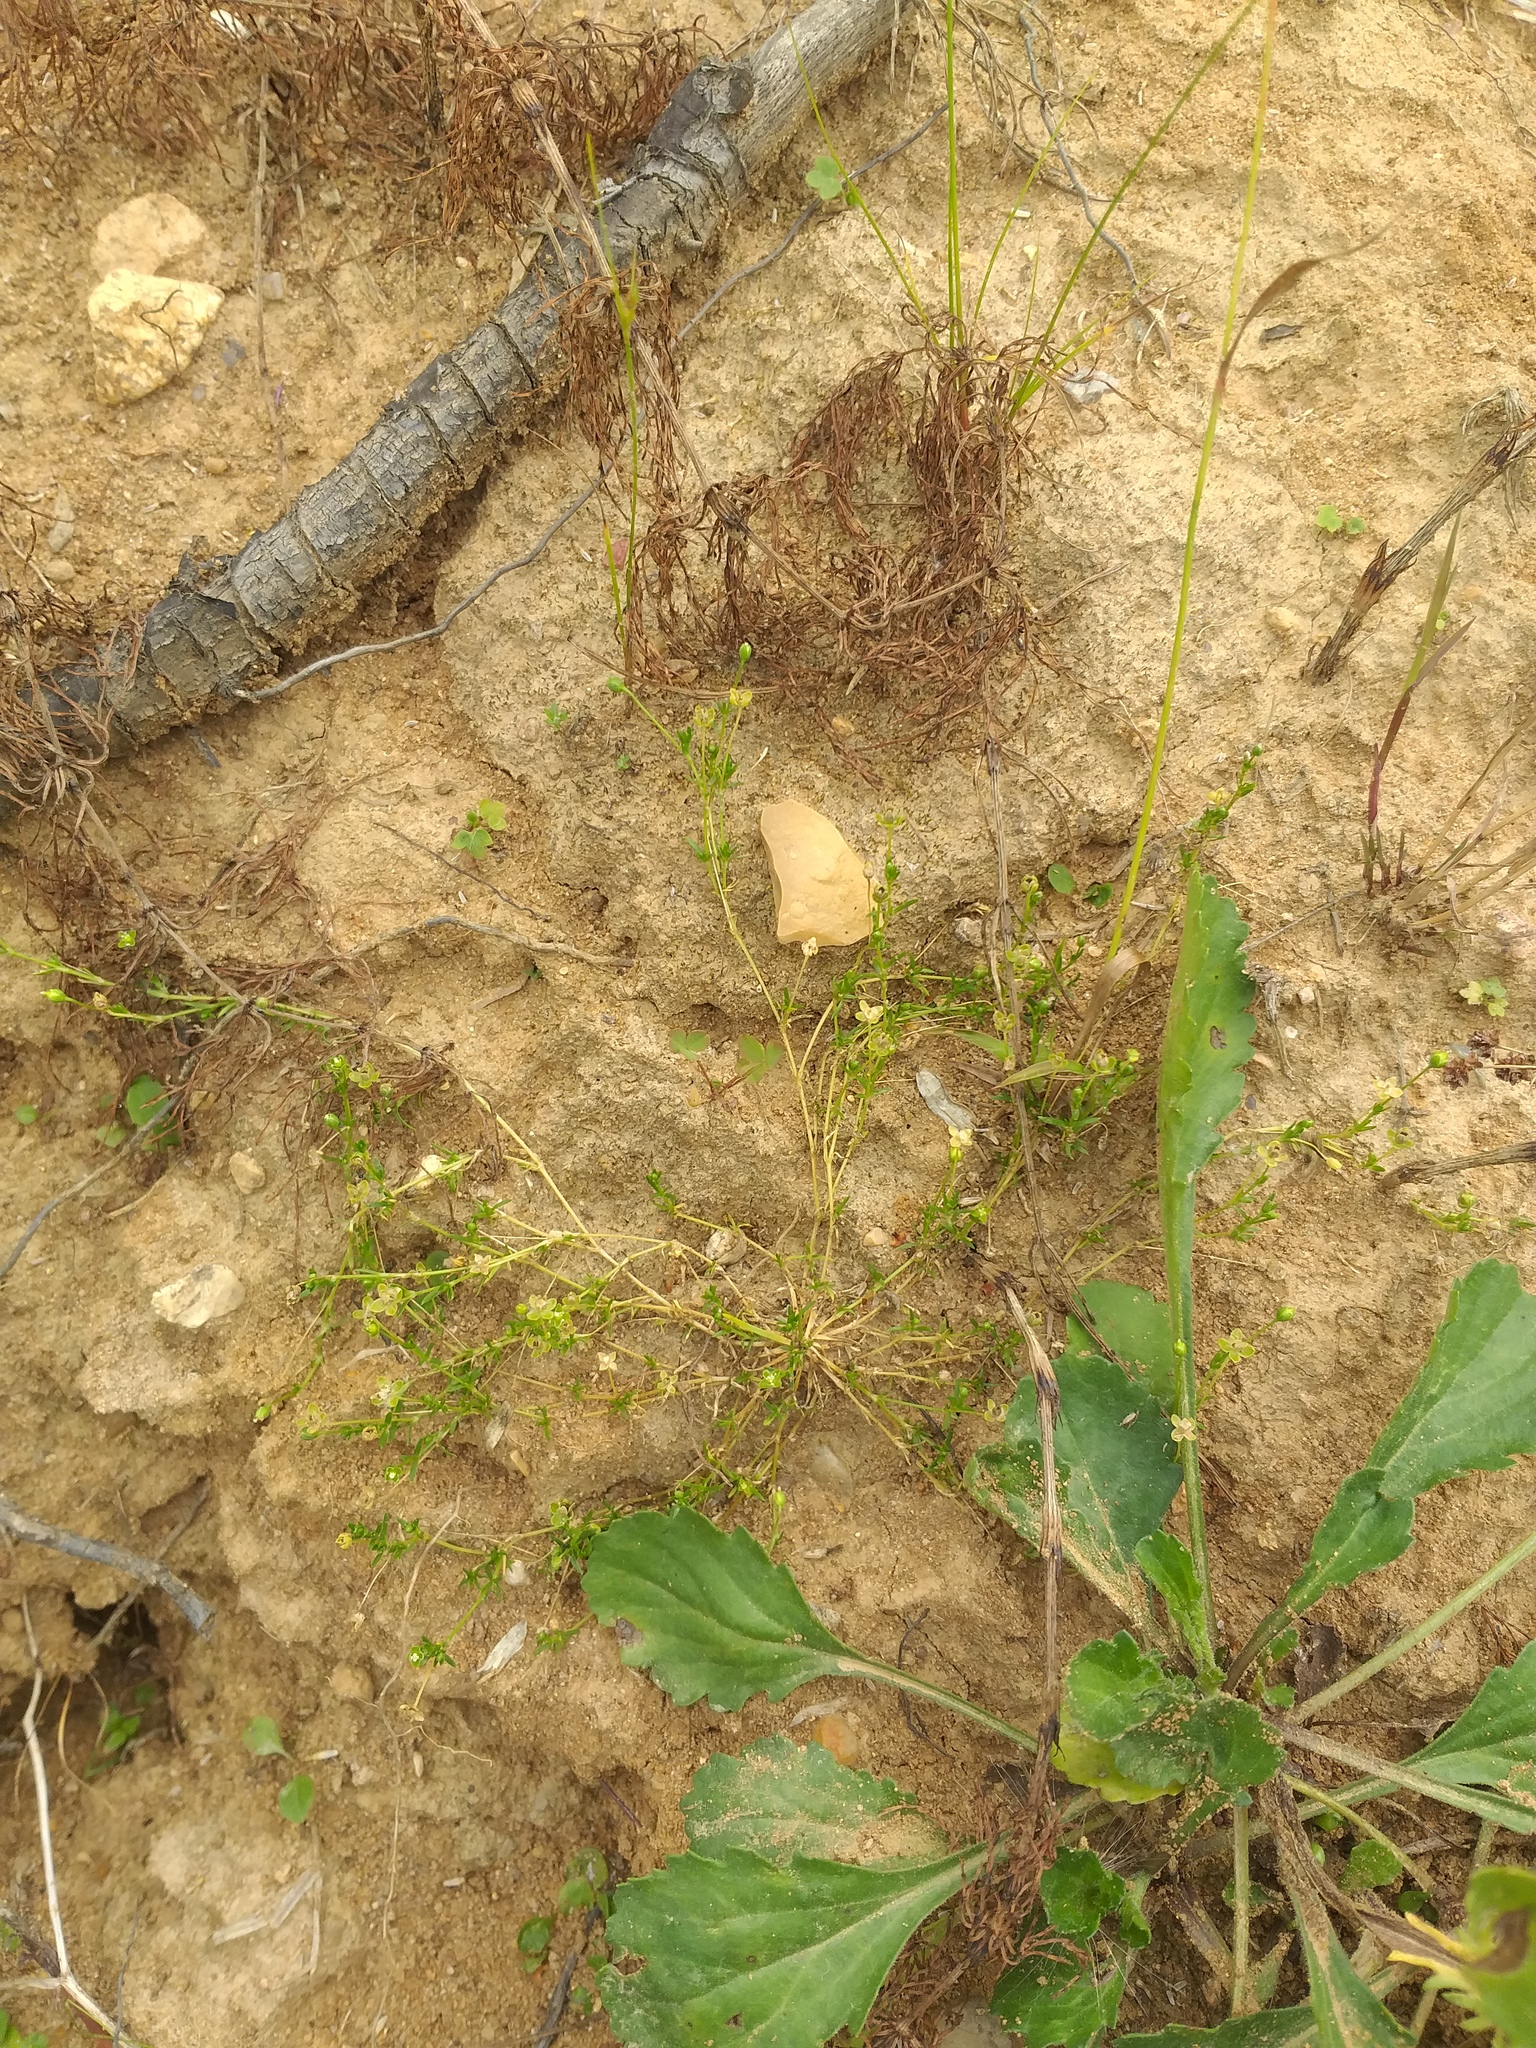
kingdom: Plantae
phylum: Tracheophyta
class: Magnoliopsida
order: Caryophyllales
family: Caryophyllaceae
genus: Sagina
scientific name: Sagina procumbens
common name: Procumbent pearlwort
